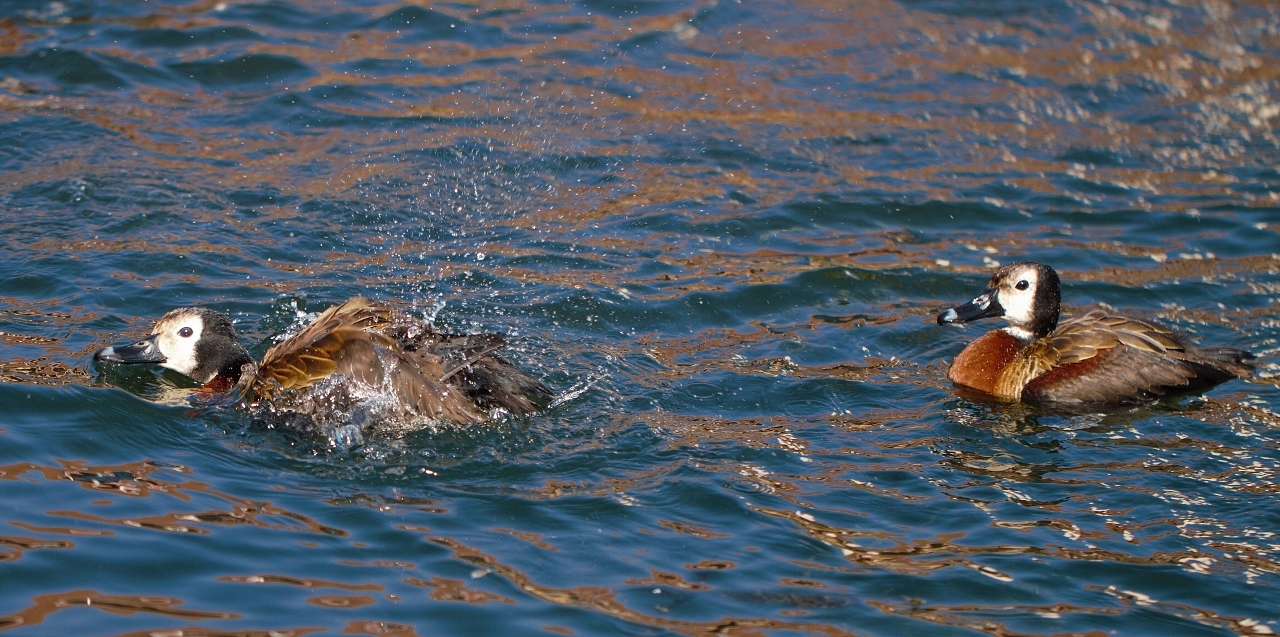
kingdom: Animalia
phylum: Chordata
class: Aves
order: Anseriformes
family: Anatidae
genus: Dendrocygna
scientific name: Dendrocygna viduata
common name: White-faced whistling duck
